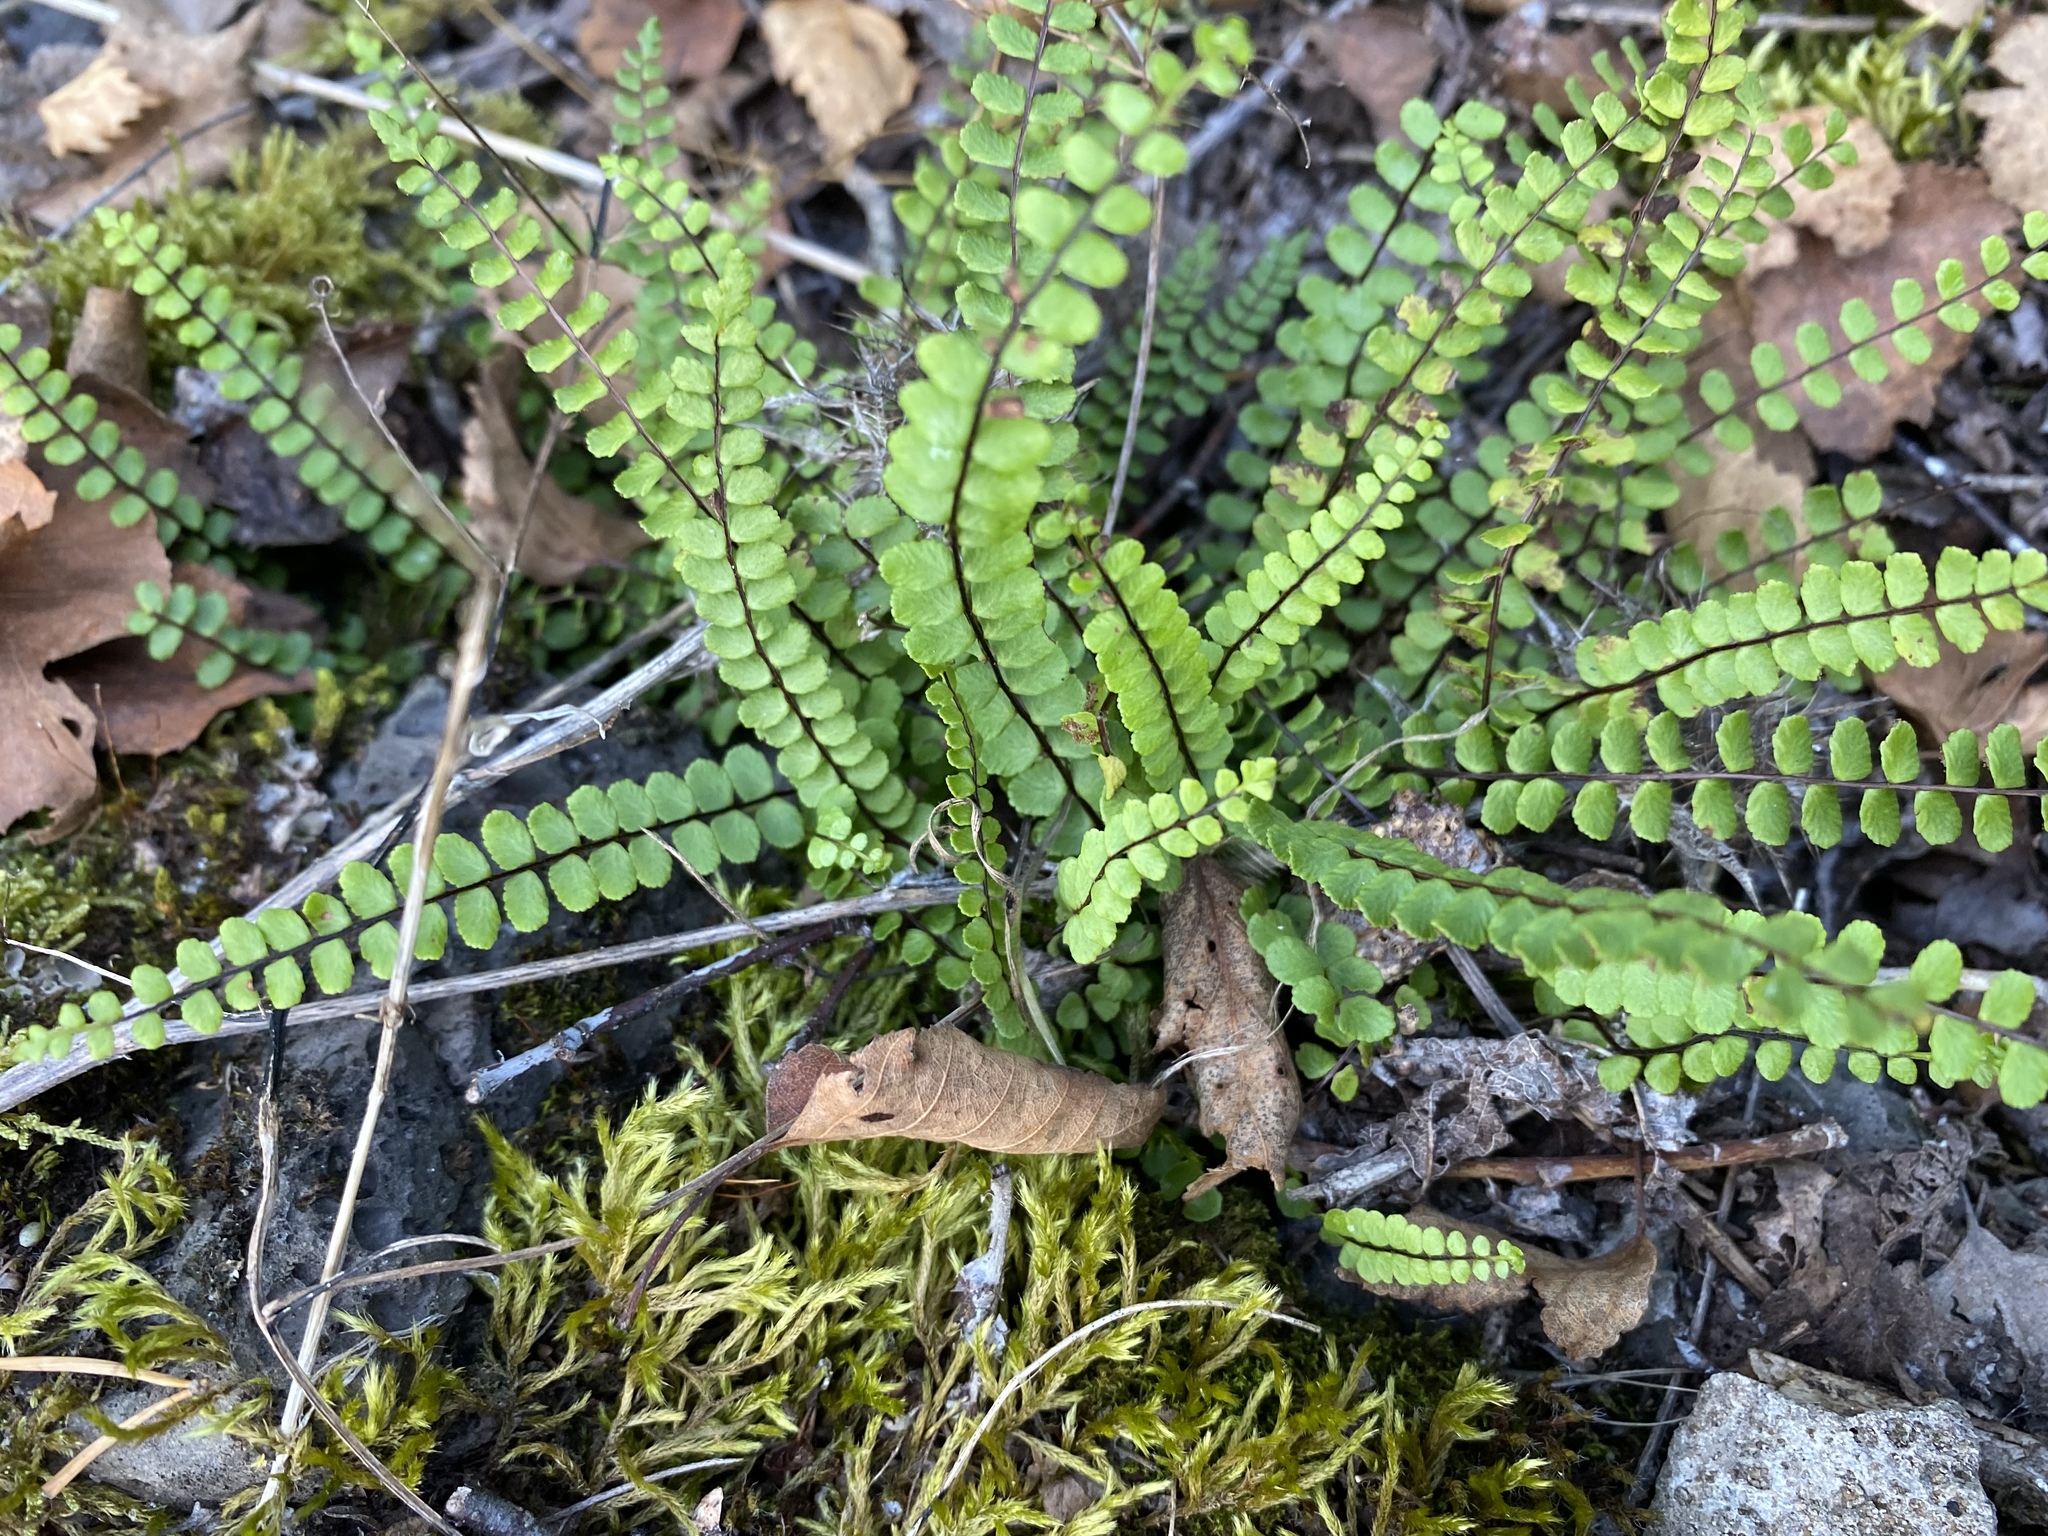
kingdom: Plantae
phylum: Tracheophyta
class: Polypodiopsida
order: Polypodiales
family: Aspleniaceae
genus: Asplenium
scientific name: Asplenium trichomanes
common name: Maidenhair spleenwort
